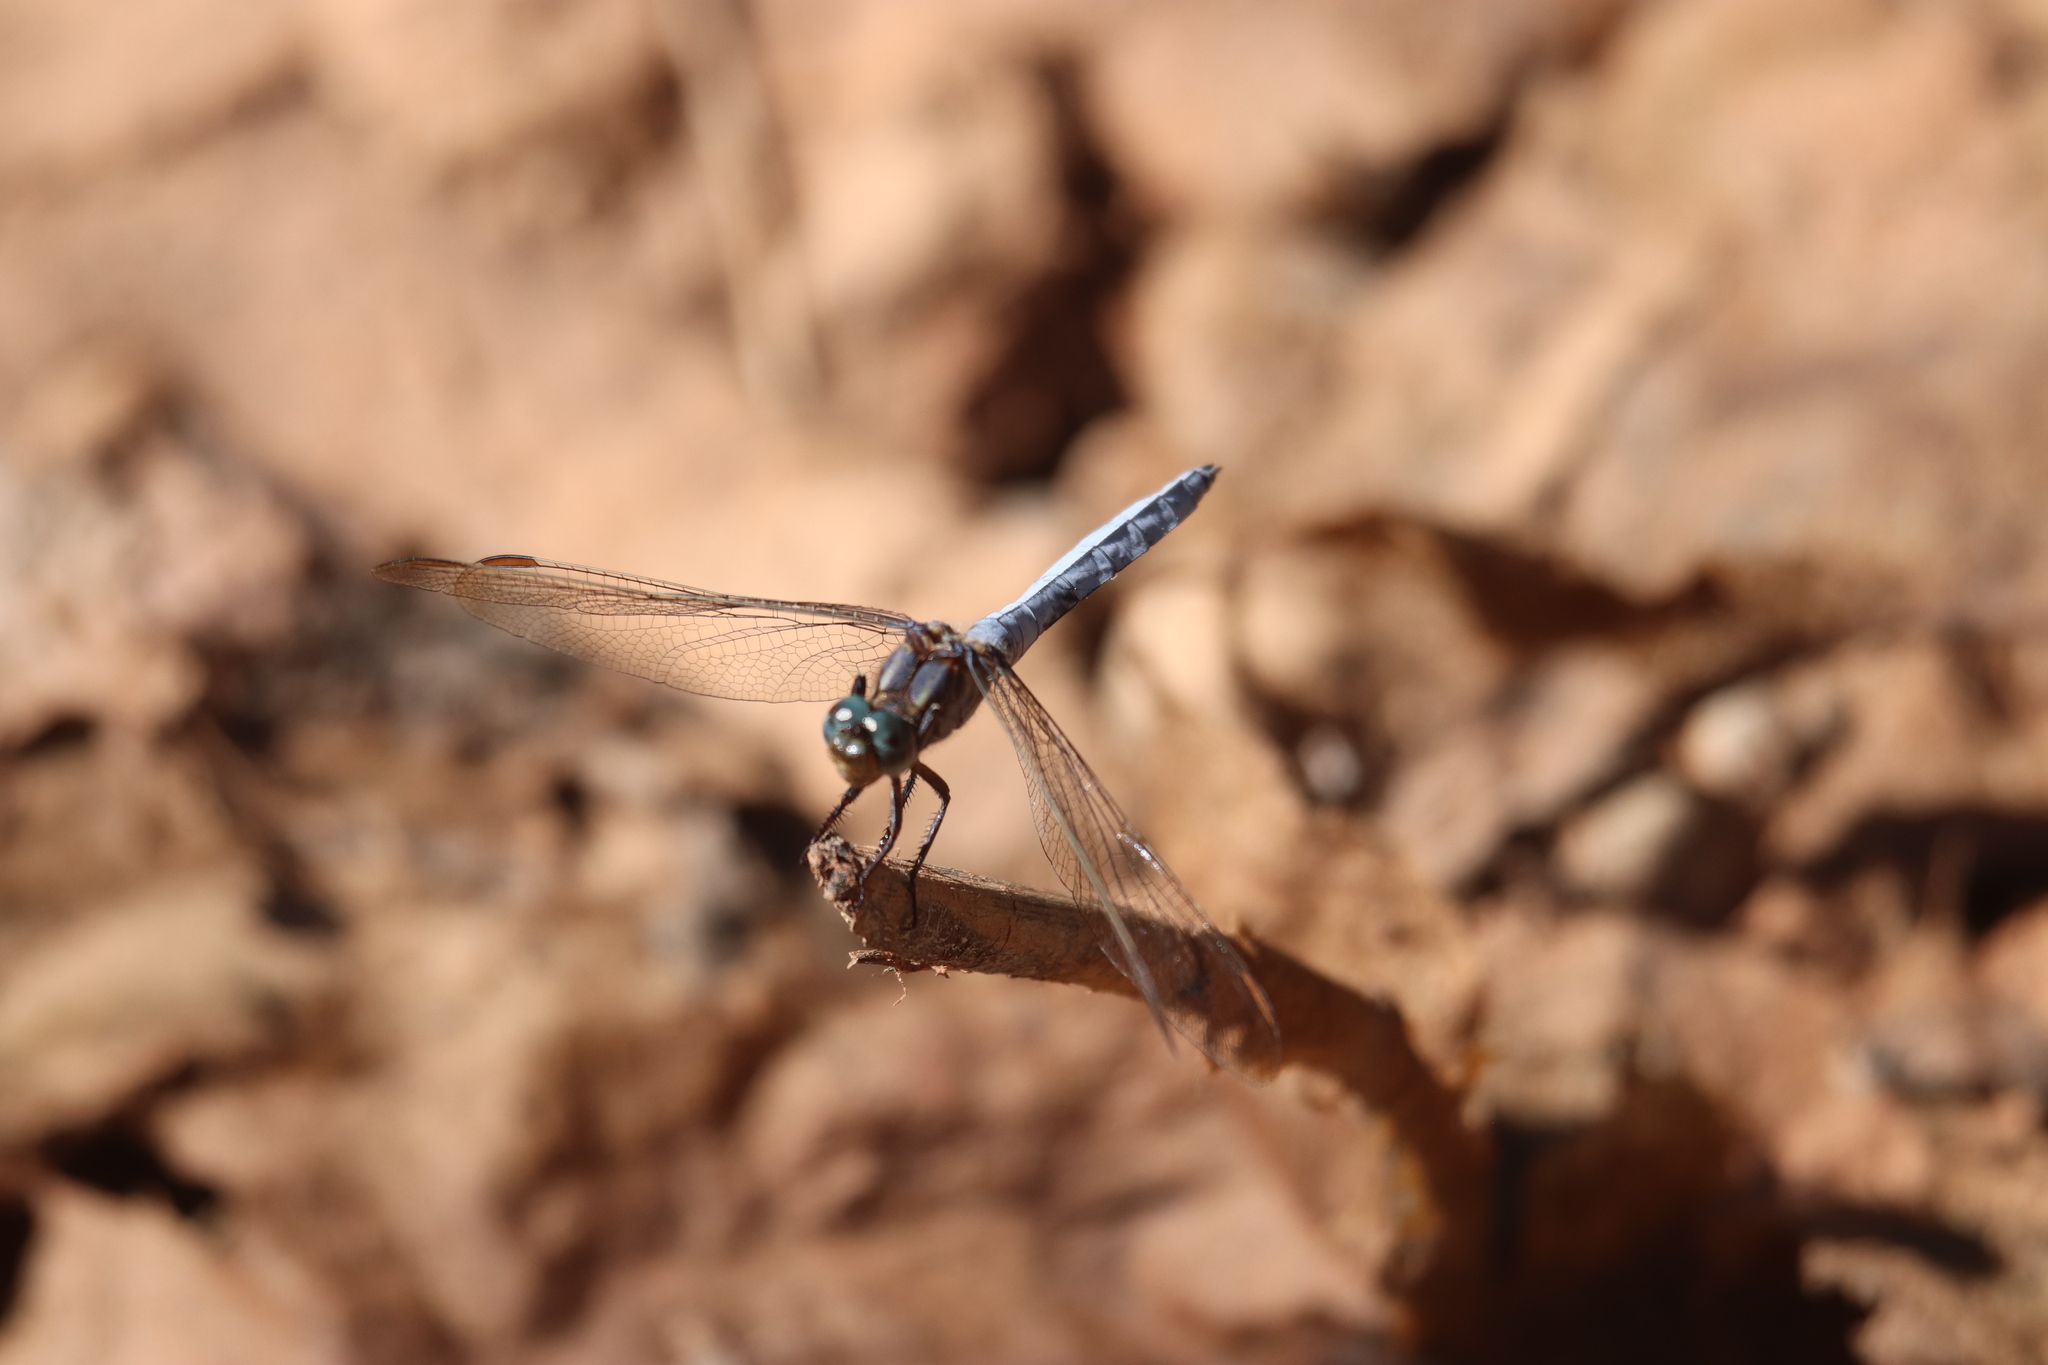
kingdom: Animalia
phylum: Arthropoda
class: Insecta
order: Odonata
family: Libellulidae
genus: Orthetrum
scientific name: Orthetrum coerulescens
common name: Keeled skimmer
